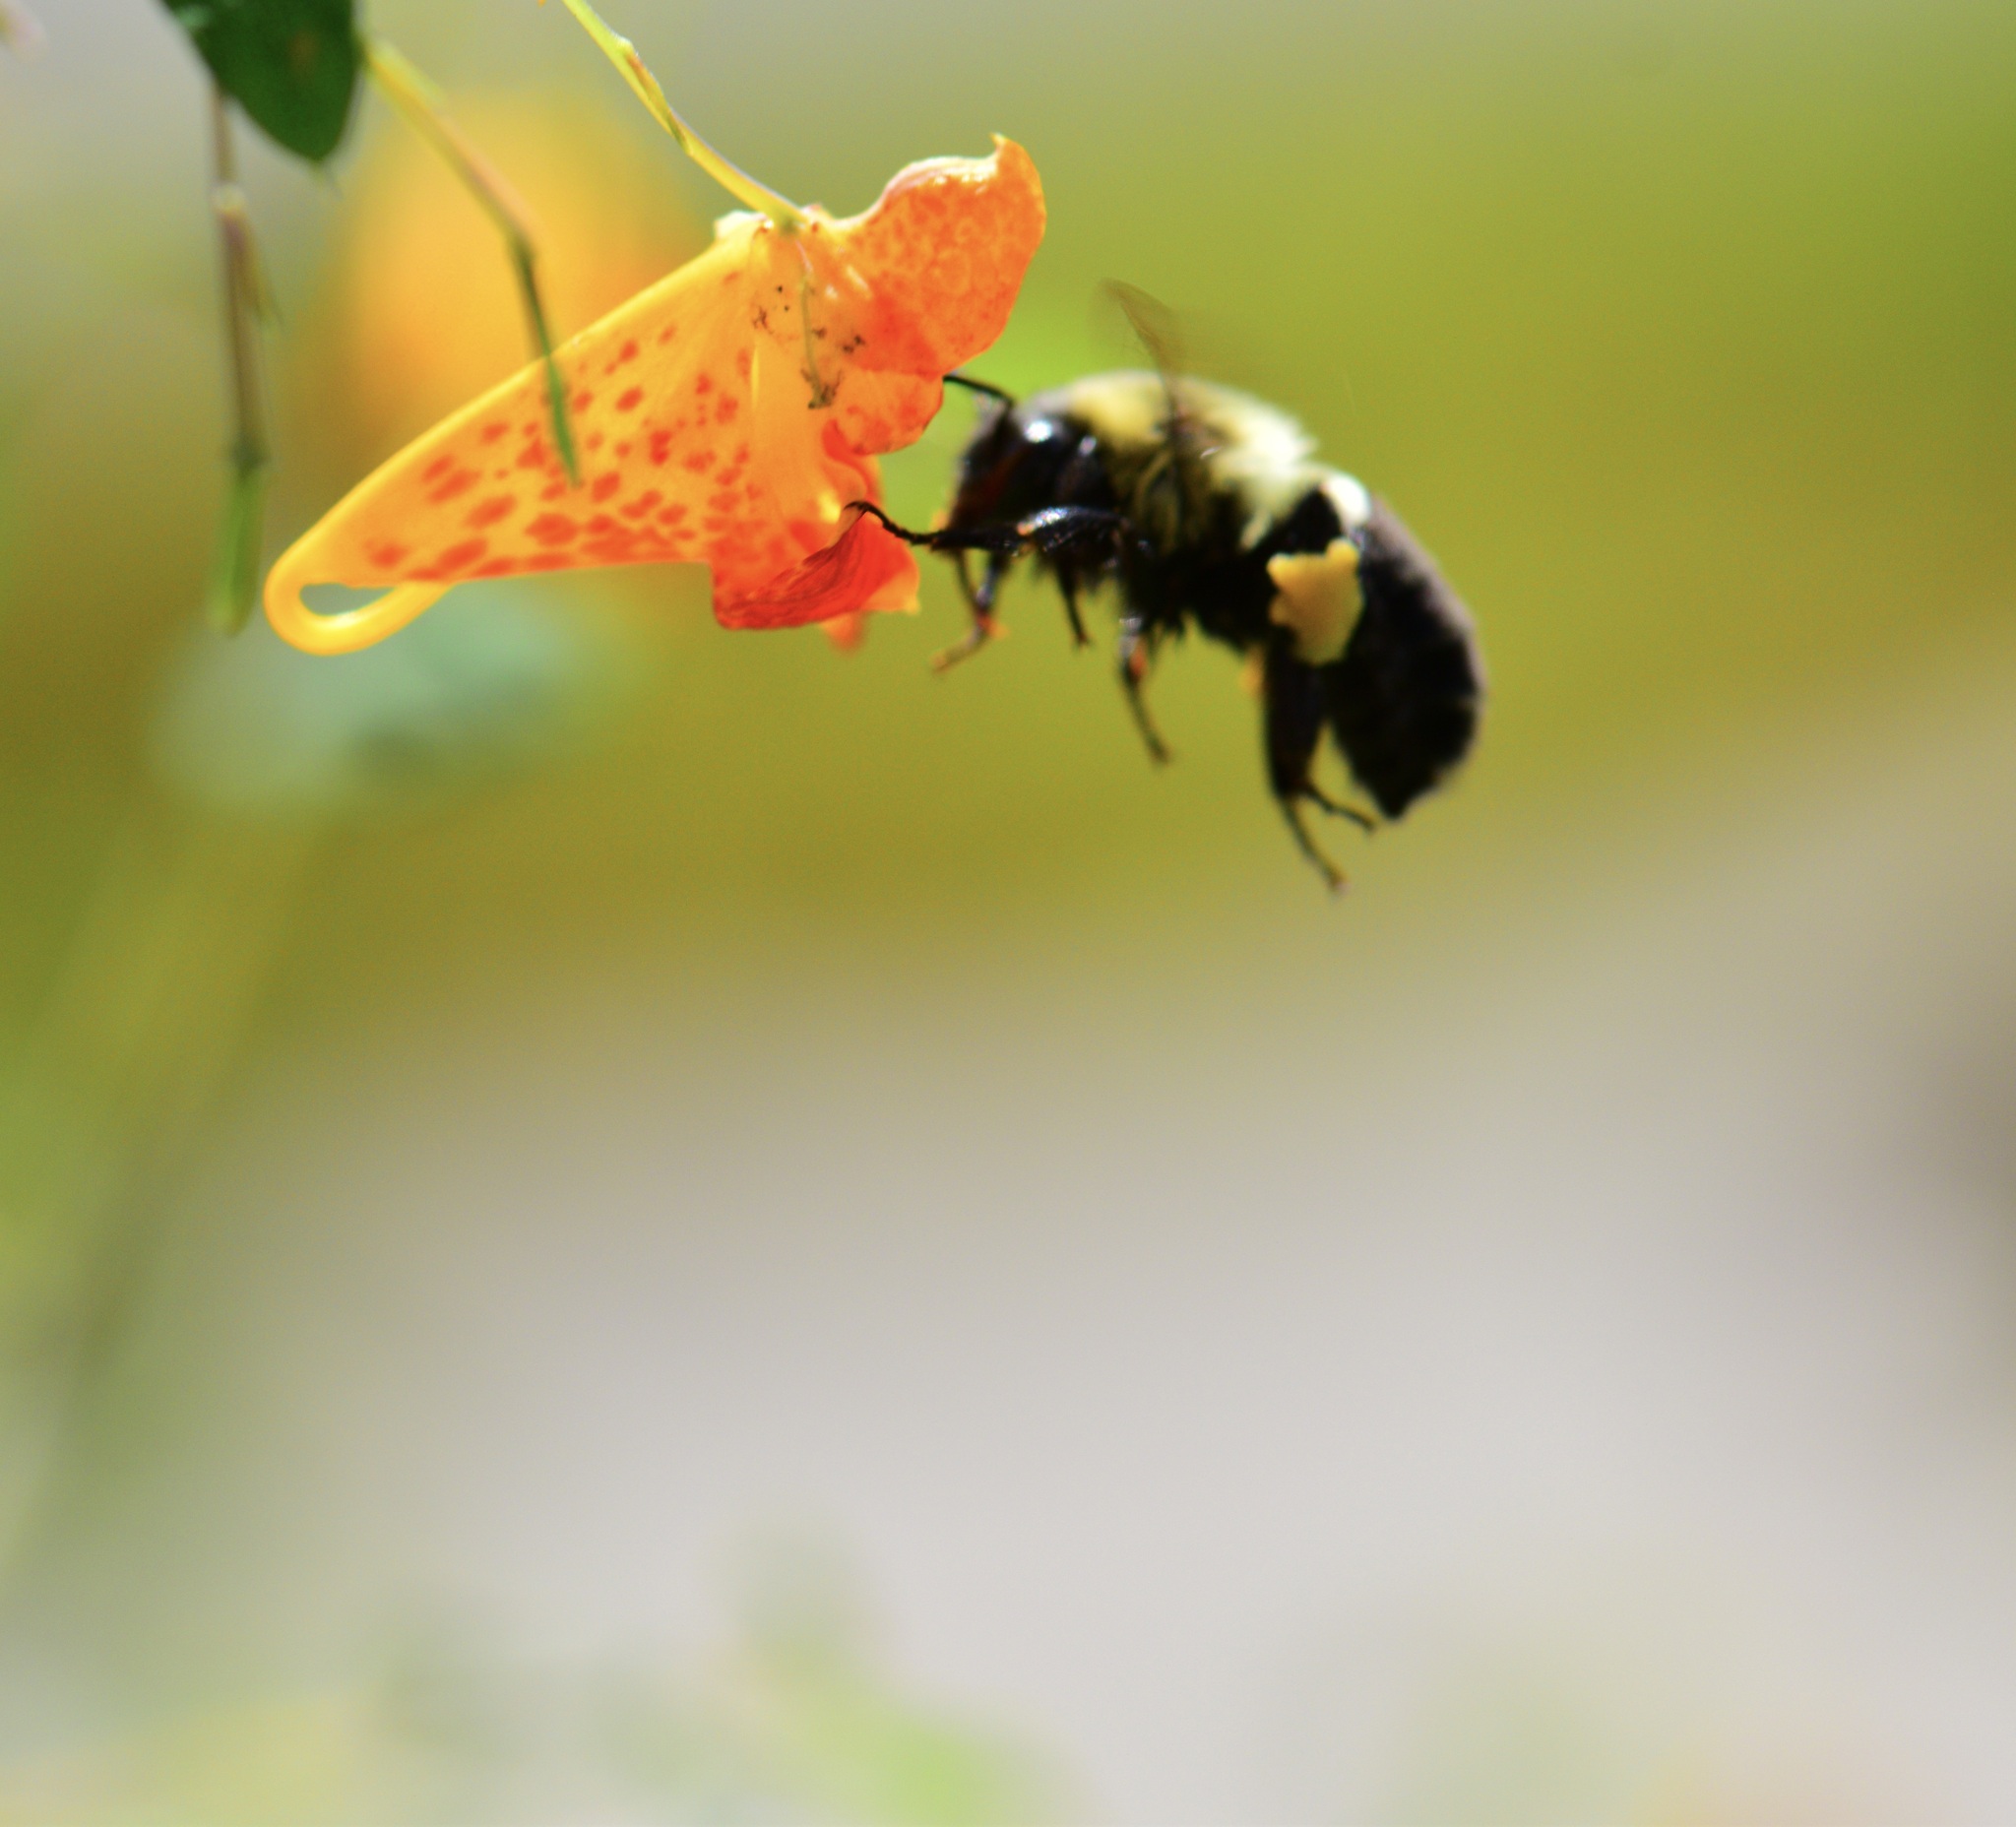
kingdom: Animalia
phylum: Arthropoda
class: Insecta
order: Hymenoptera
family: Apidae
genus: Bombus
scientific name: Bombus impatiens
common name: Common eastern bumble bee
